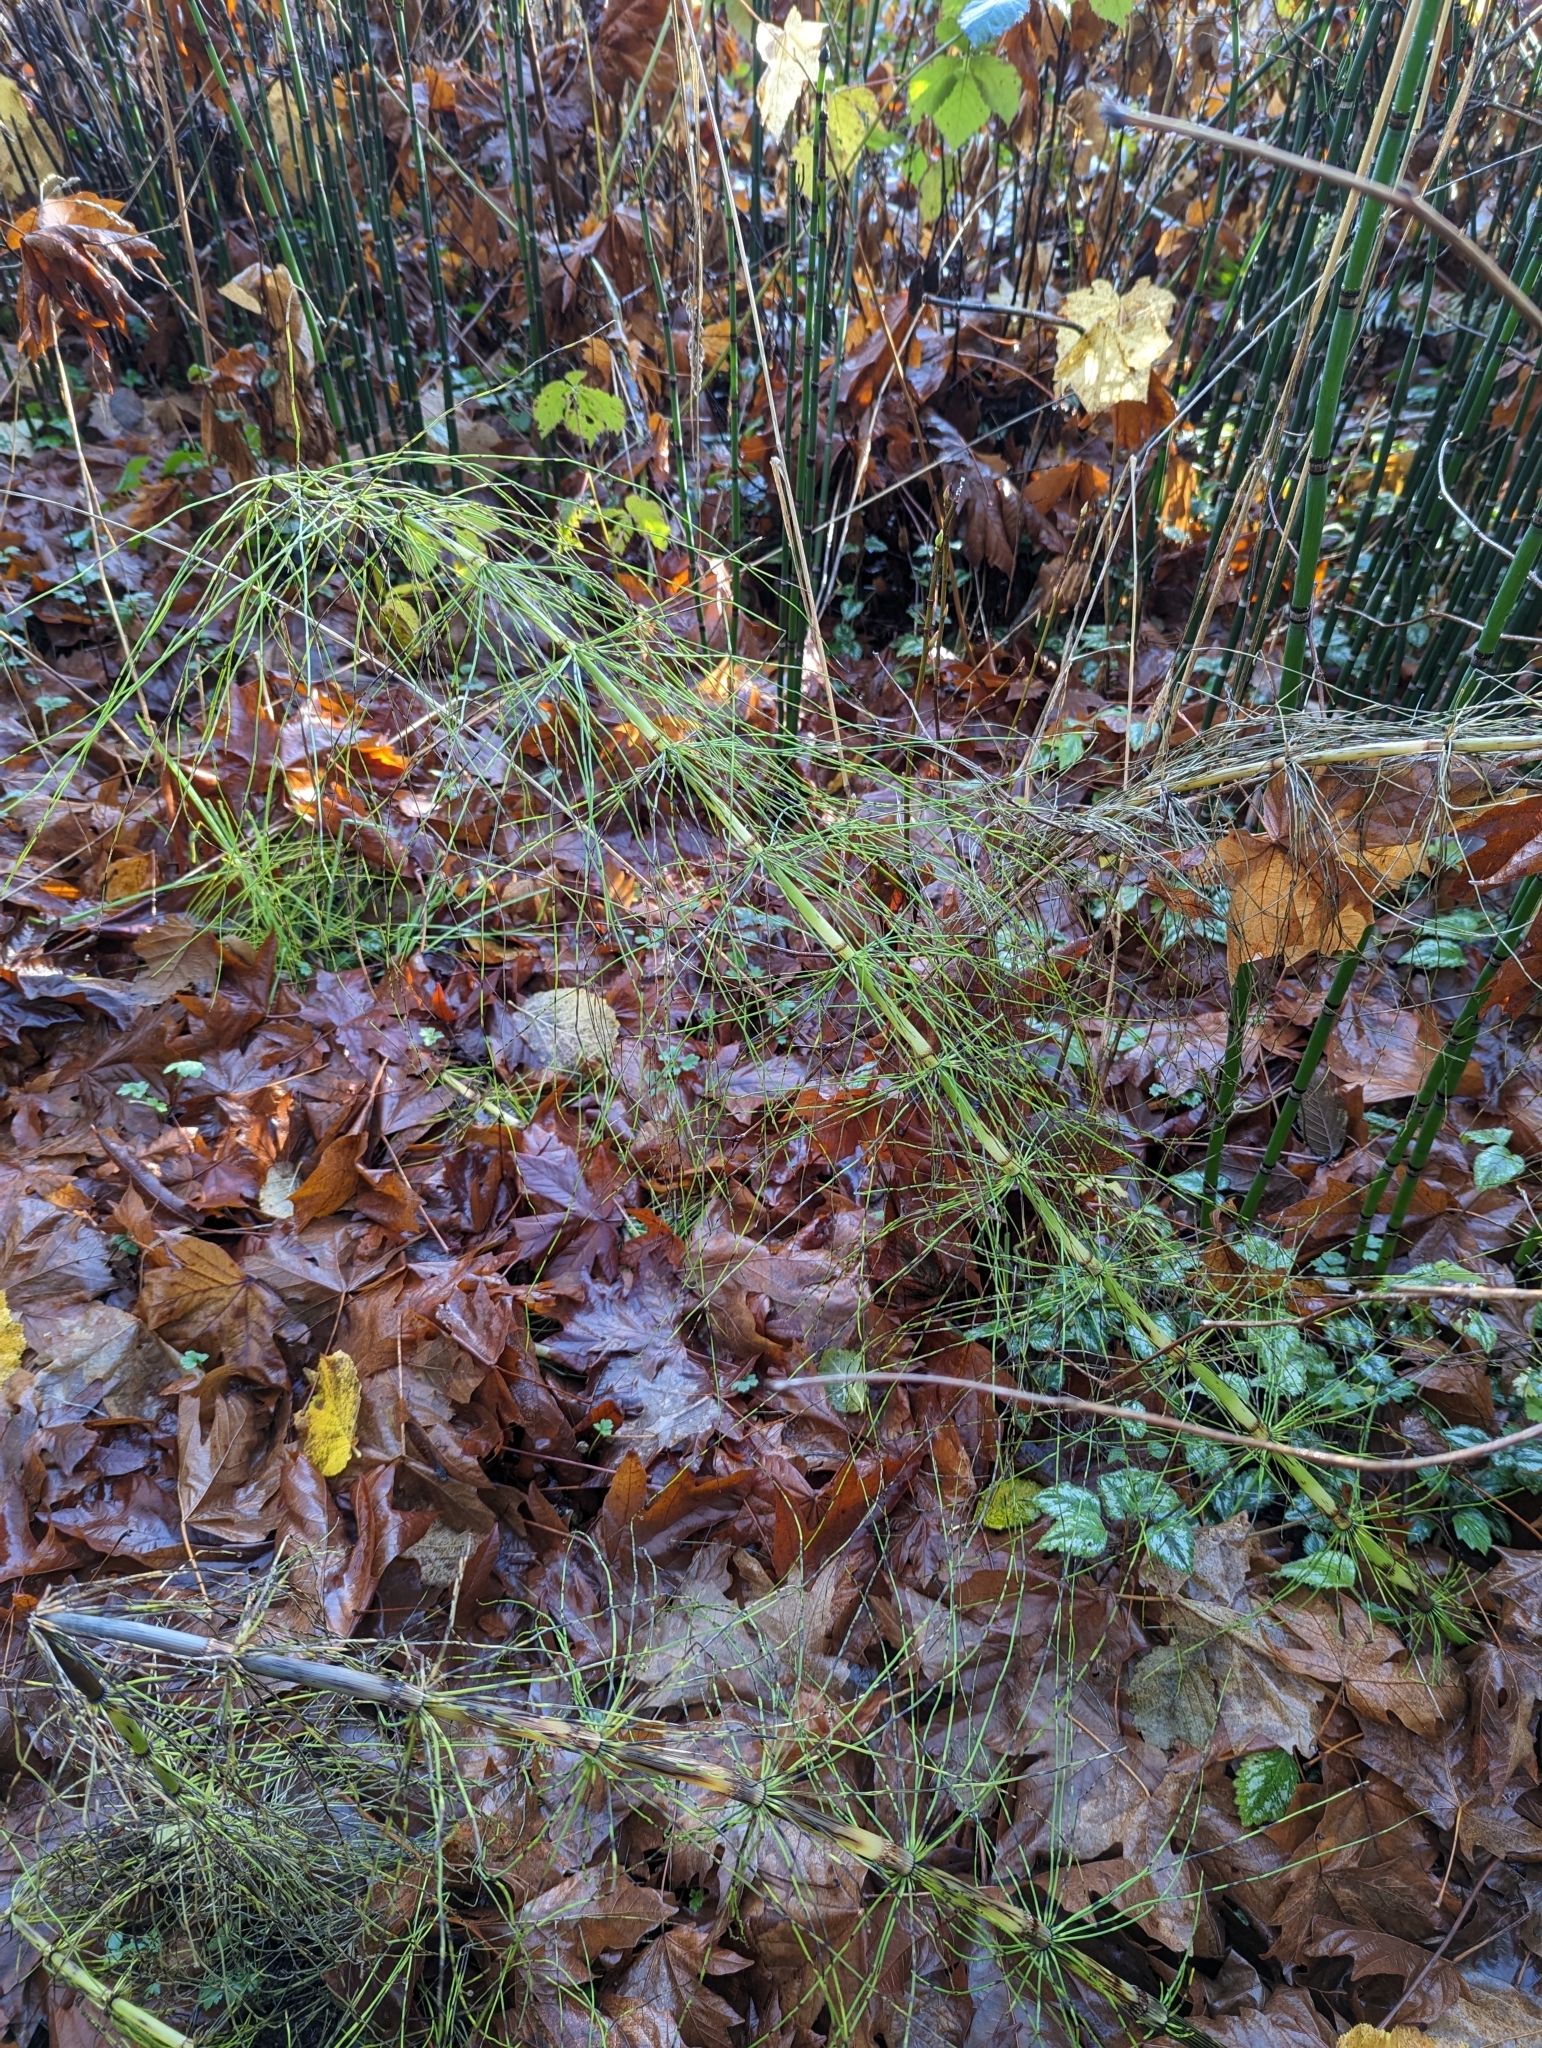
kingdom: Plantae
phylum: Tracheophyta
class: Polypodiopsida
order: Equisetales
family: Equisetaceae
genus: Equisetum
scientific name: Equisetum braunii
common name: Braun's horsetail
